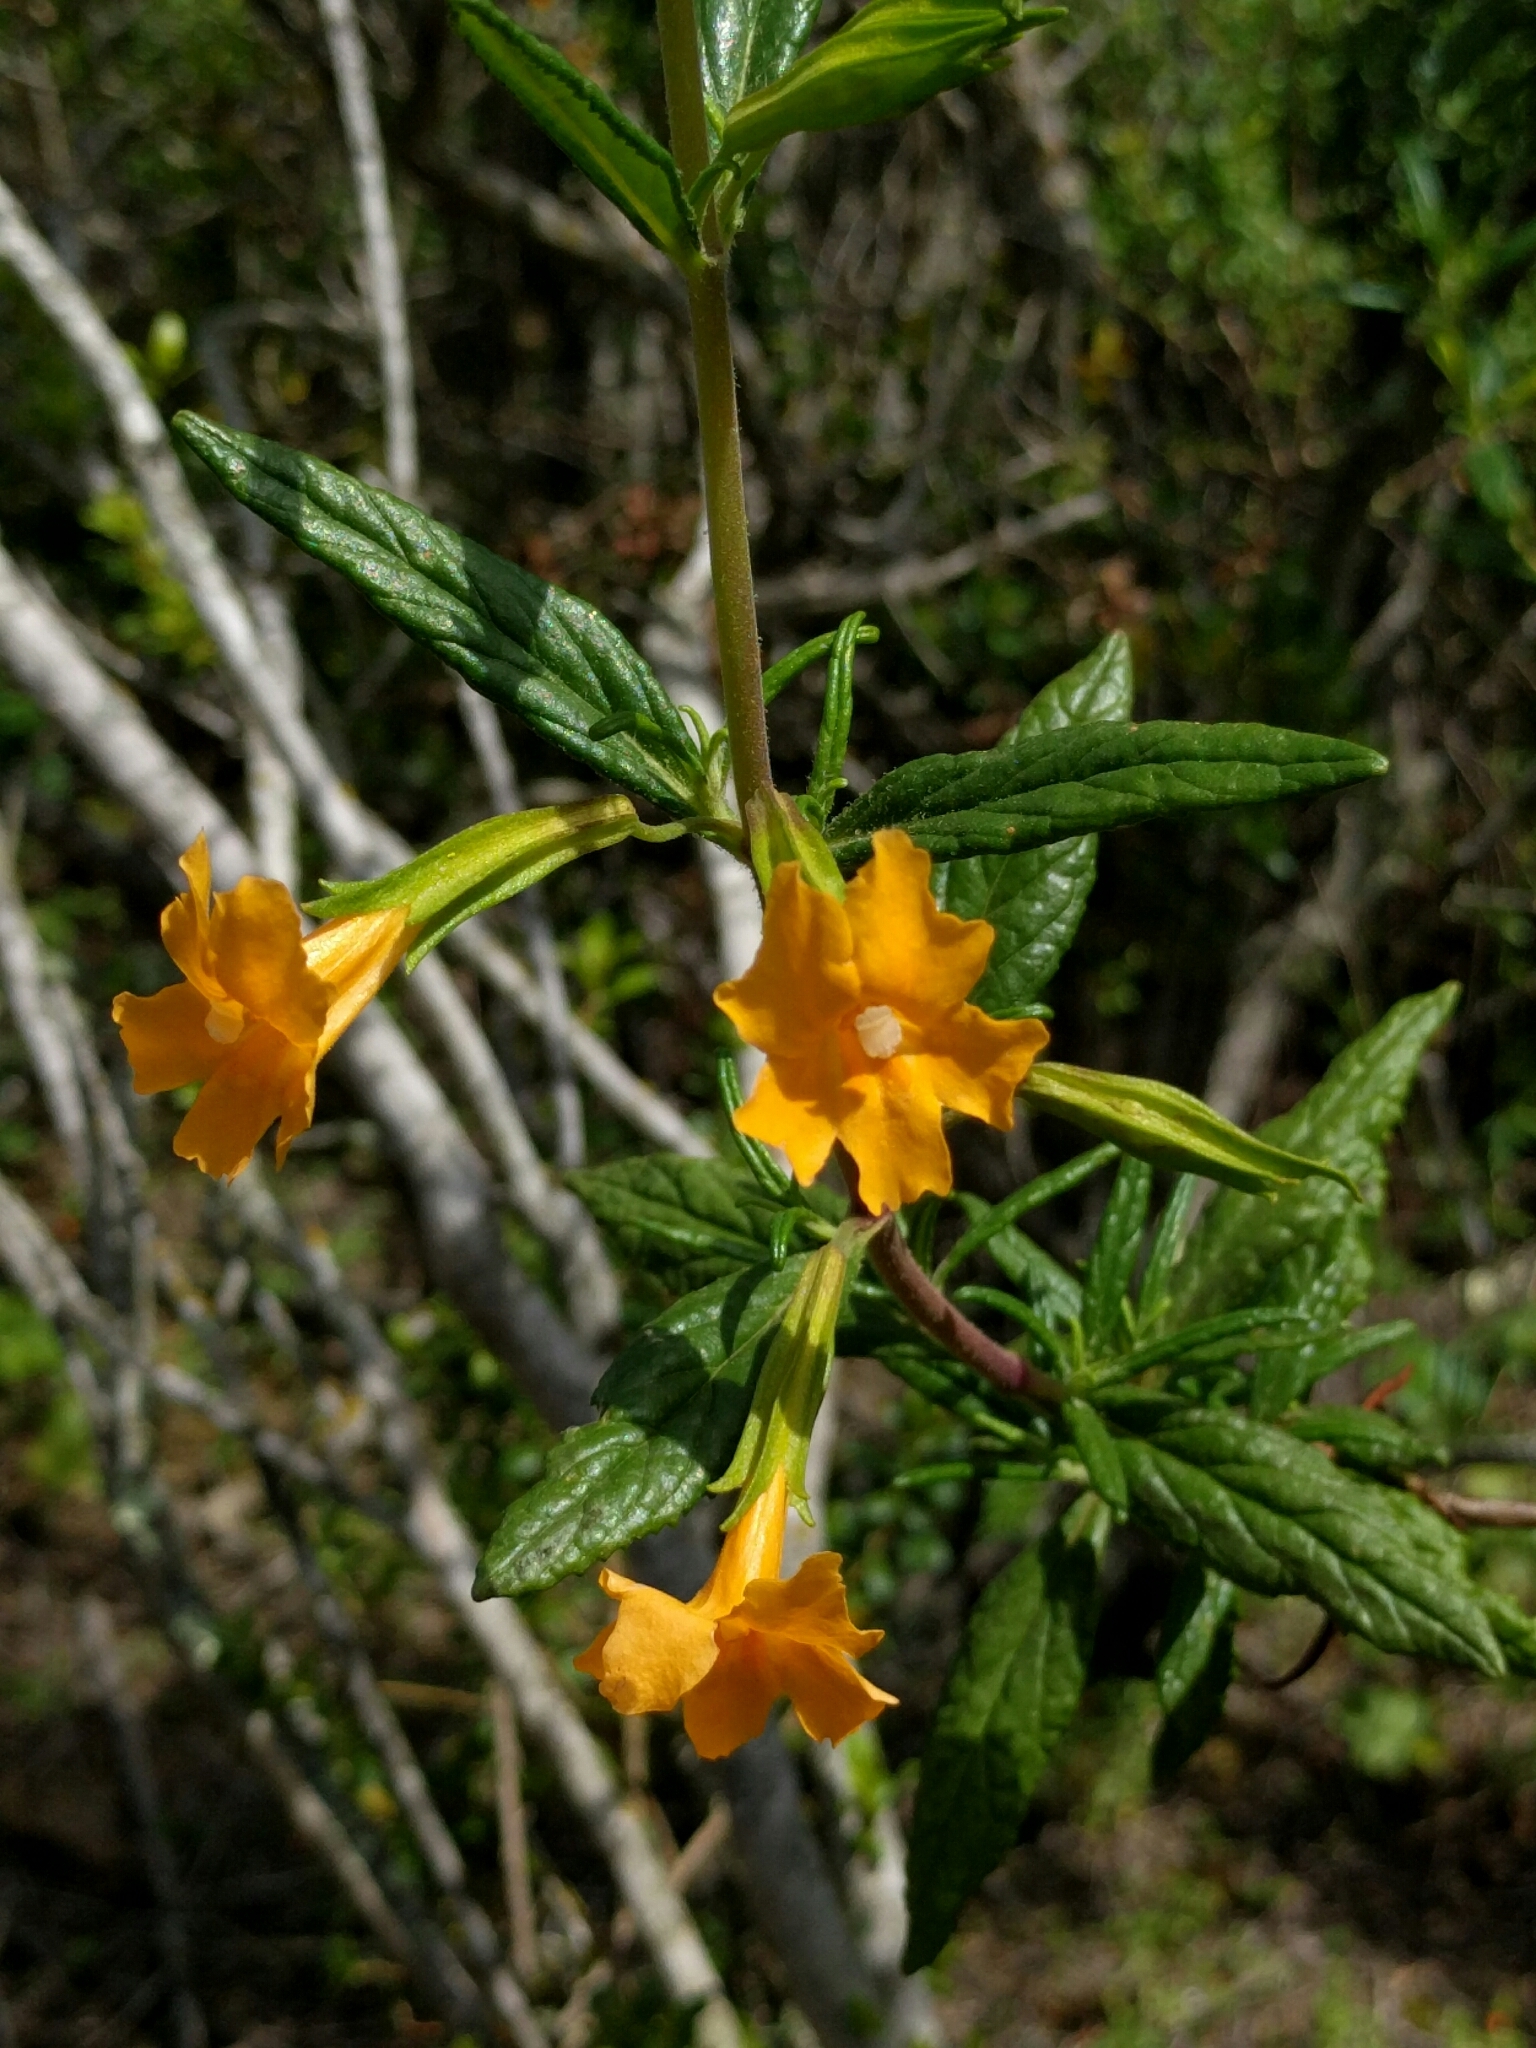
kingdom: Plantae
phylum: Tracheophyta
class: Magnoliopsida
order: Lamiales
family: Phrymaceae
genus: Diplacus
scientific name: Diplacus aurantiacus
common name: Bush monkey-flower
